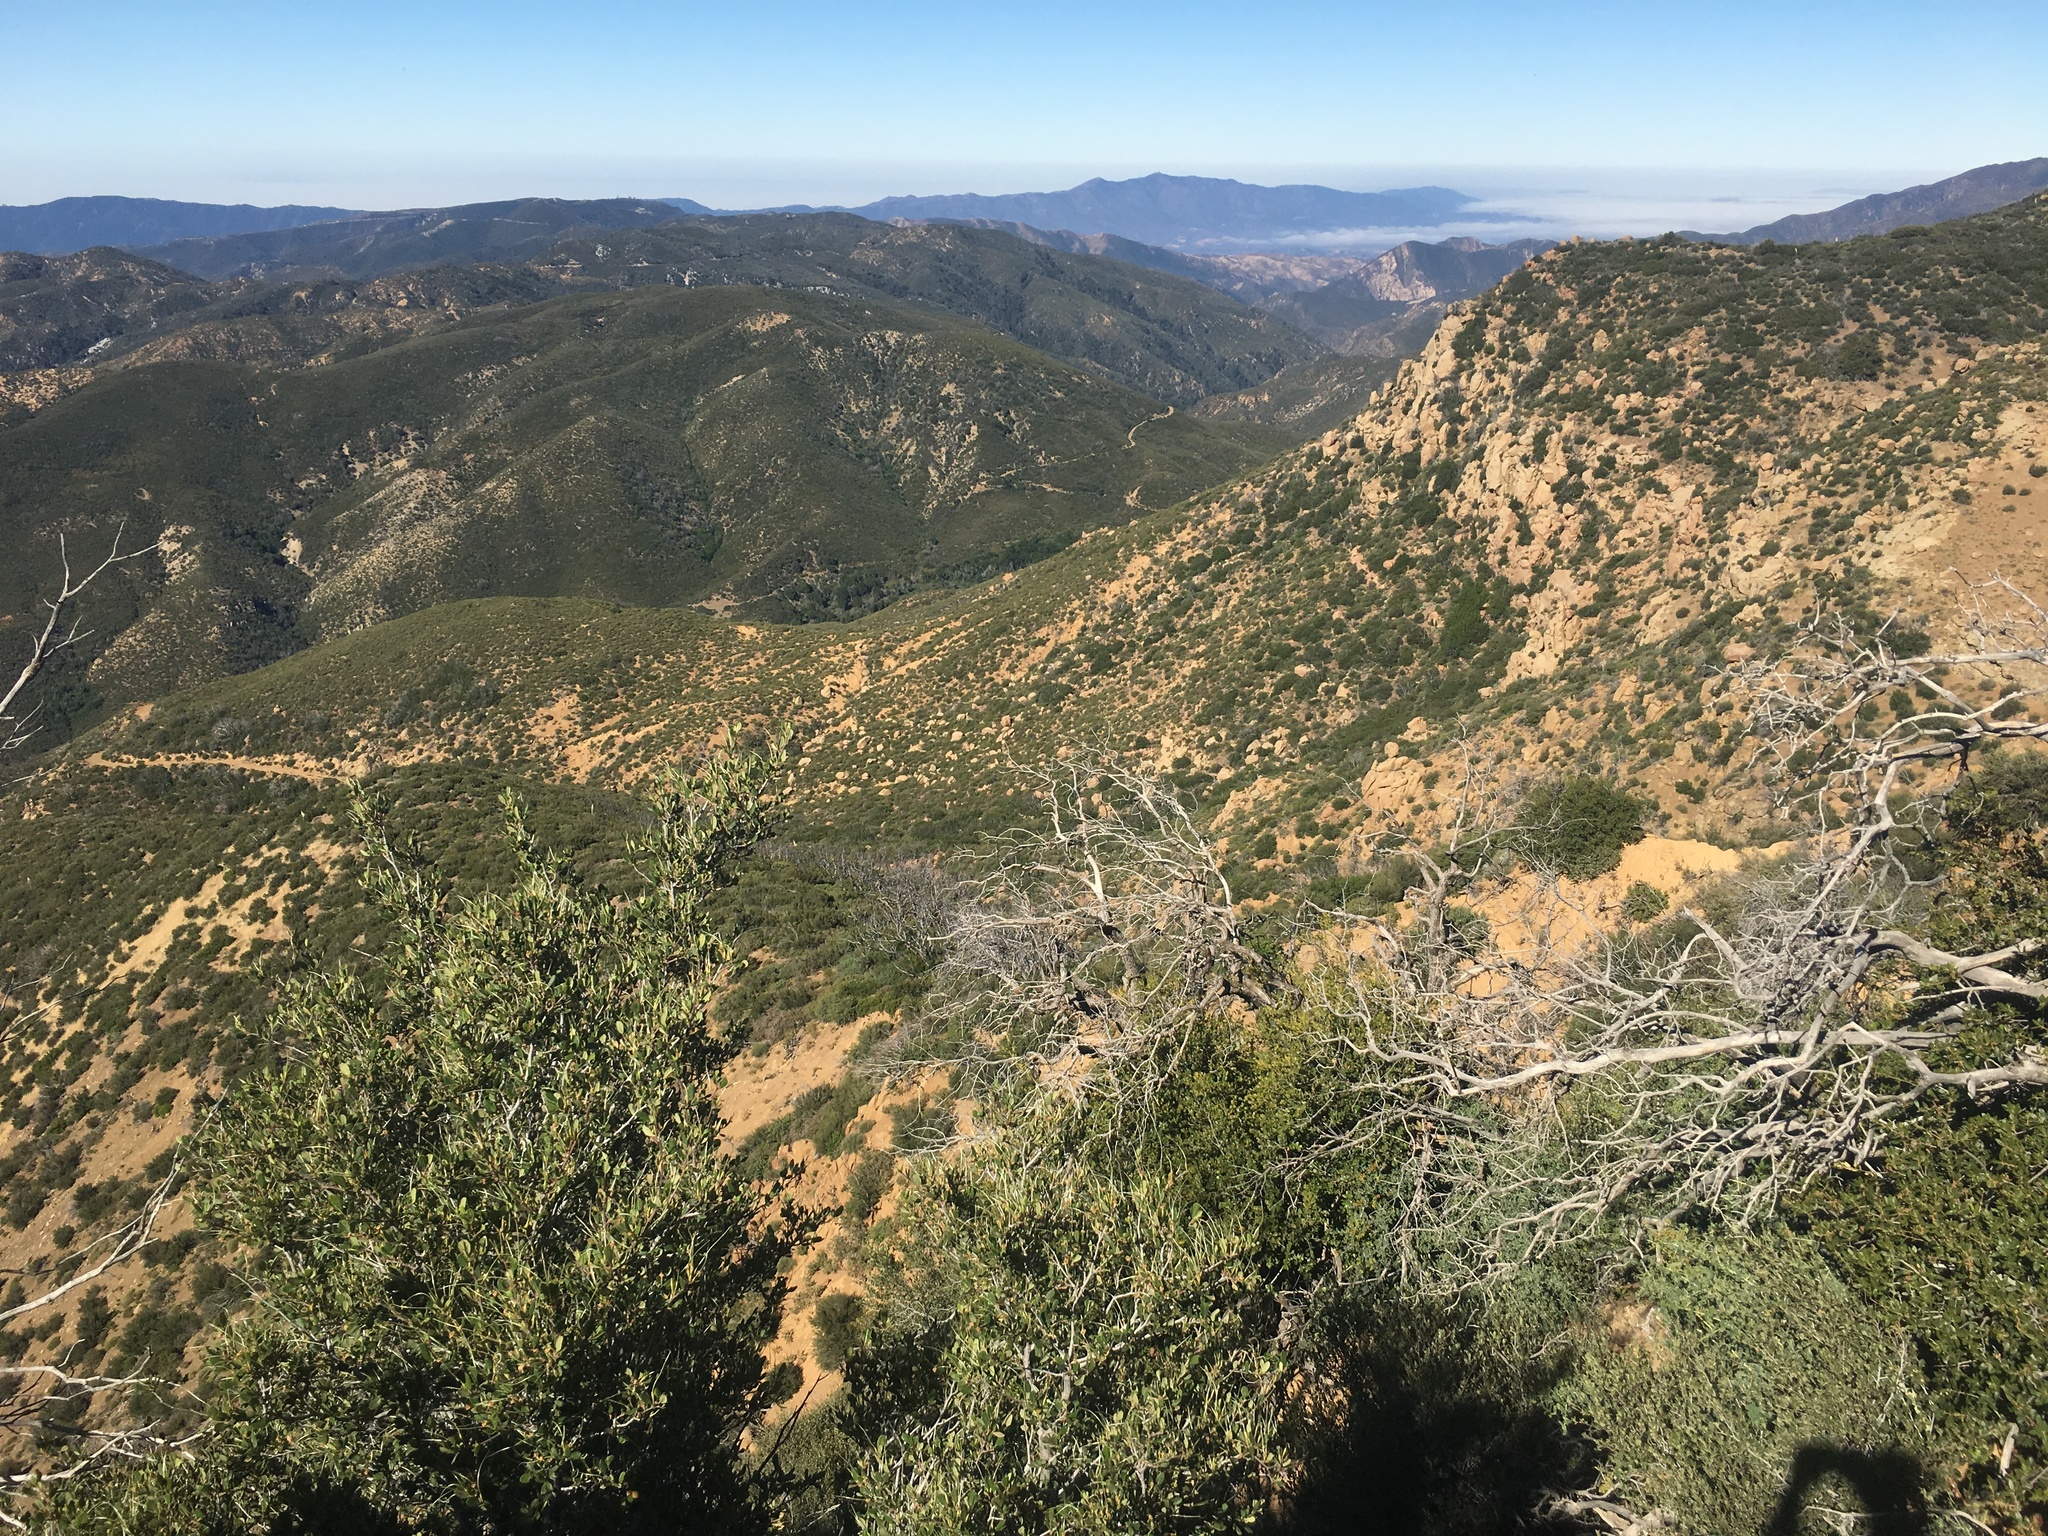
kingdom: Plantae
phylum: Tracheophyta
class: Magnoliopsida
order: Rosales
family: Rosaceae
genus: Cercocarpus
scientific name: Cercocarpus betuloides
